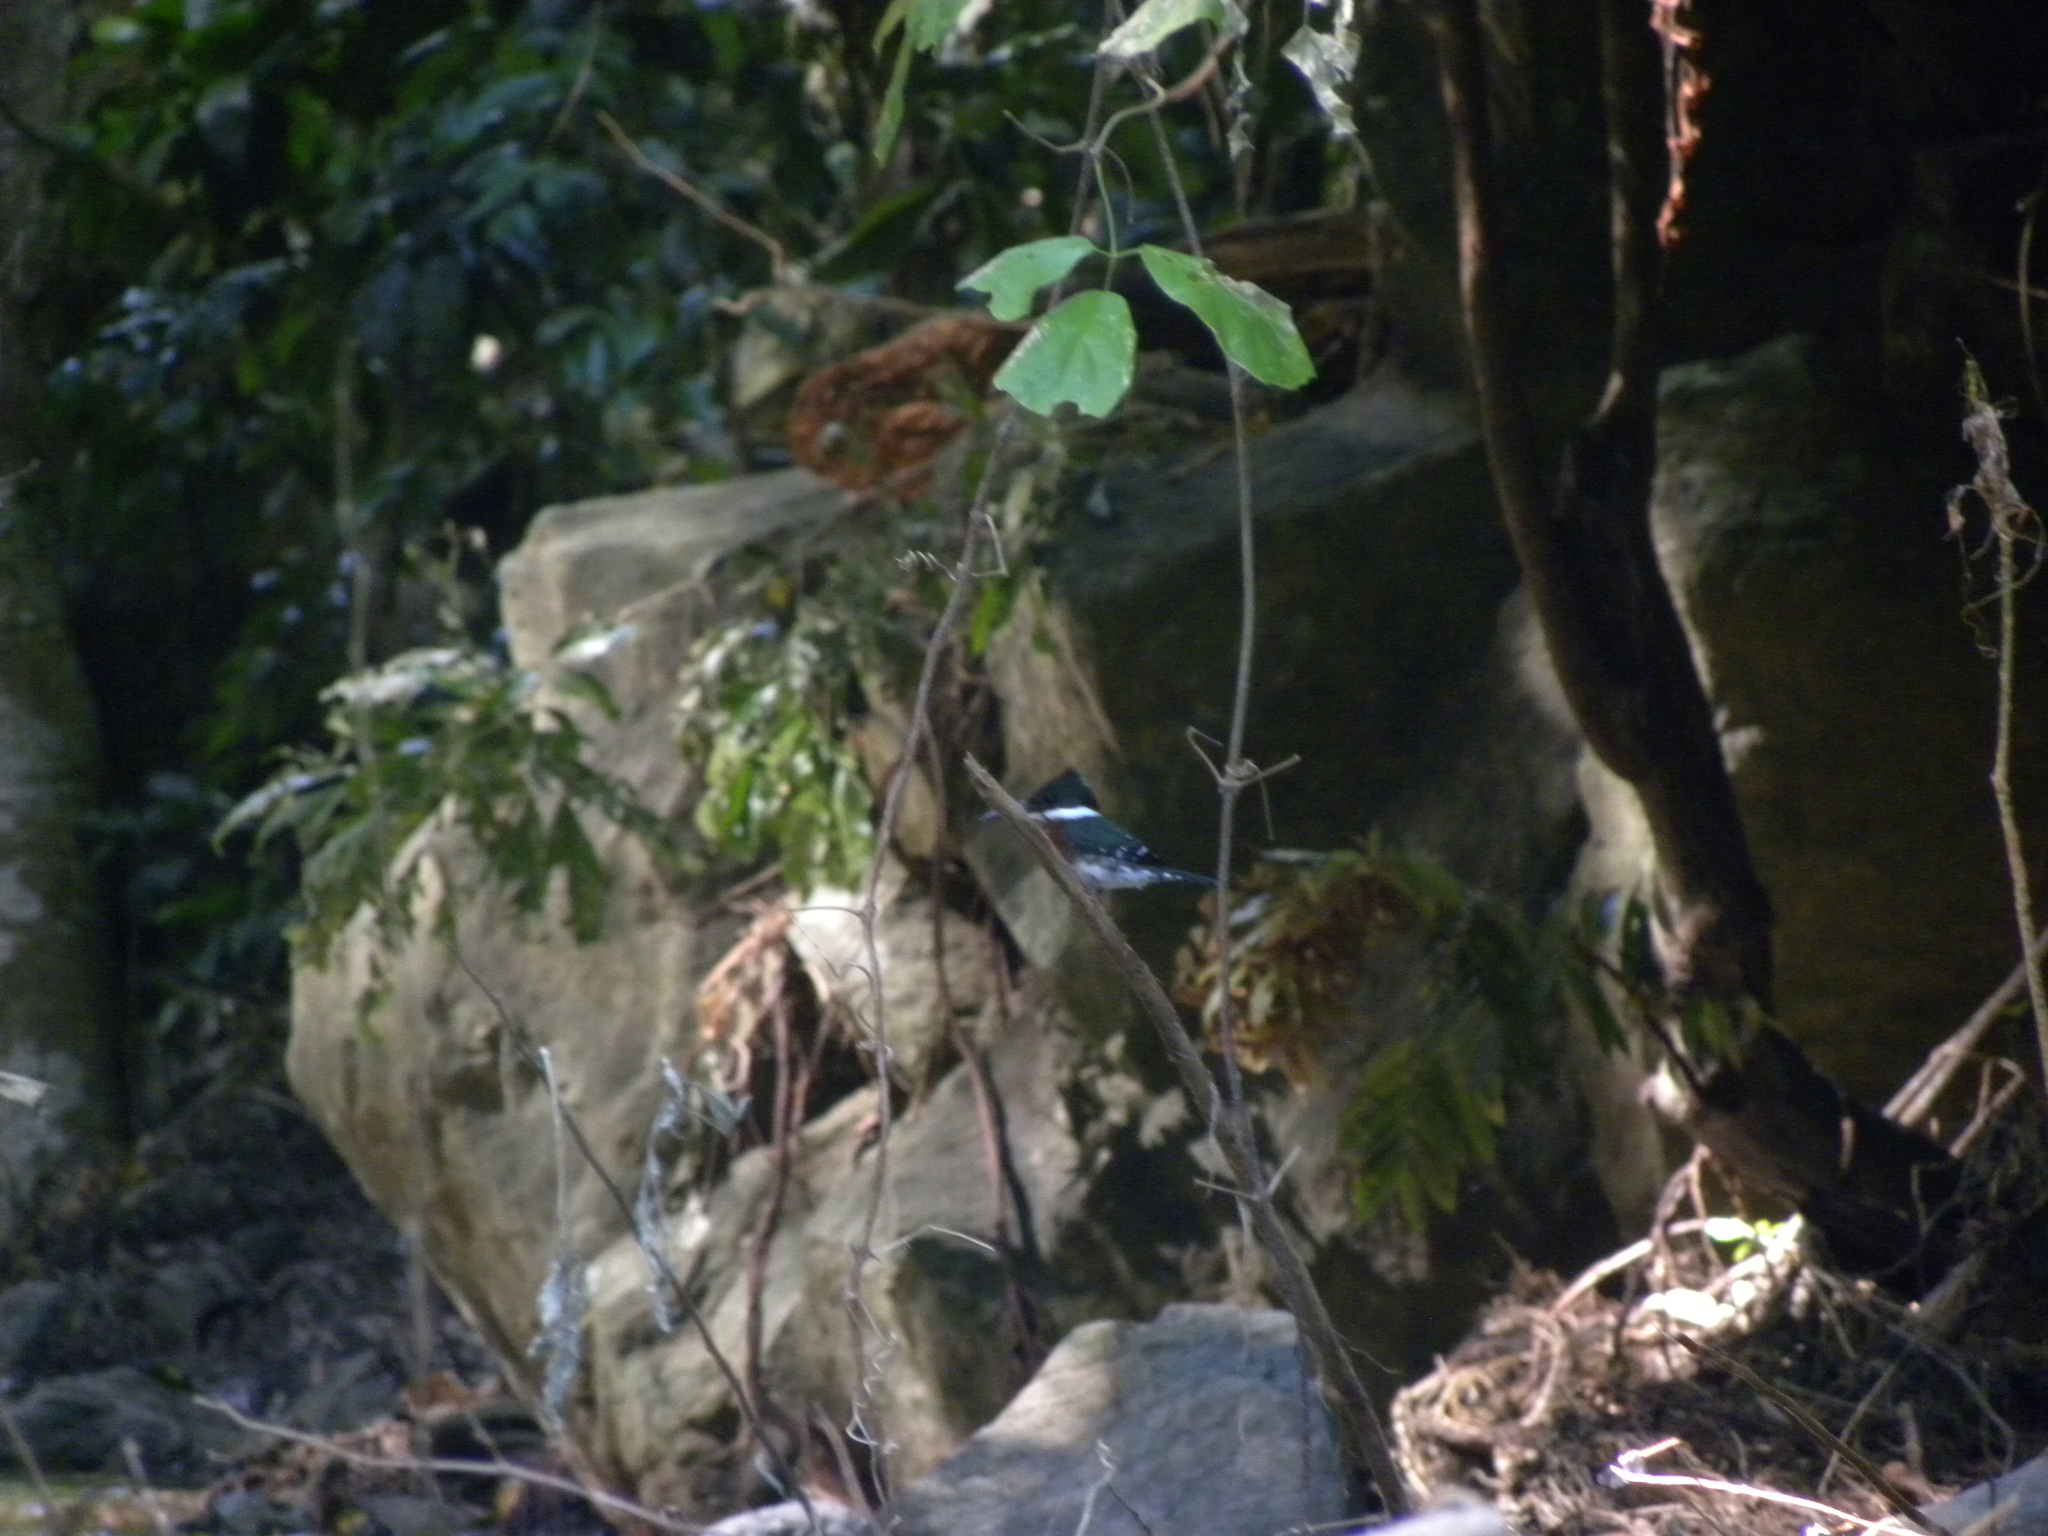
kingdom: Animalia
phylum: Chordata
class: Aves
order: Coraciiformes
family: Alcedinidae
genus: Chloroceryle
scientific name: Chloroceryle americana
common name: Green kingfisher
